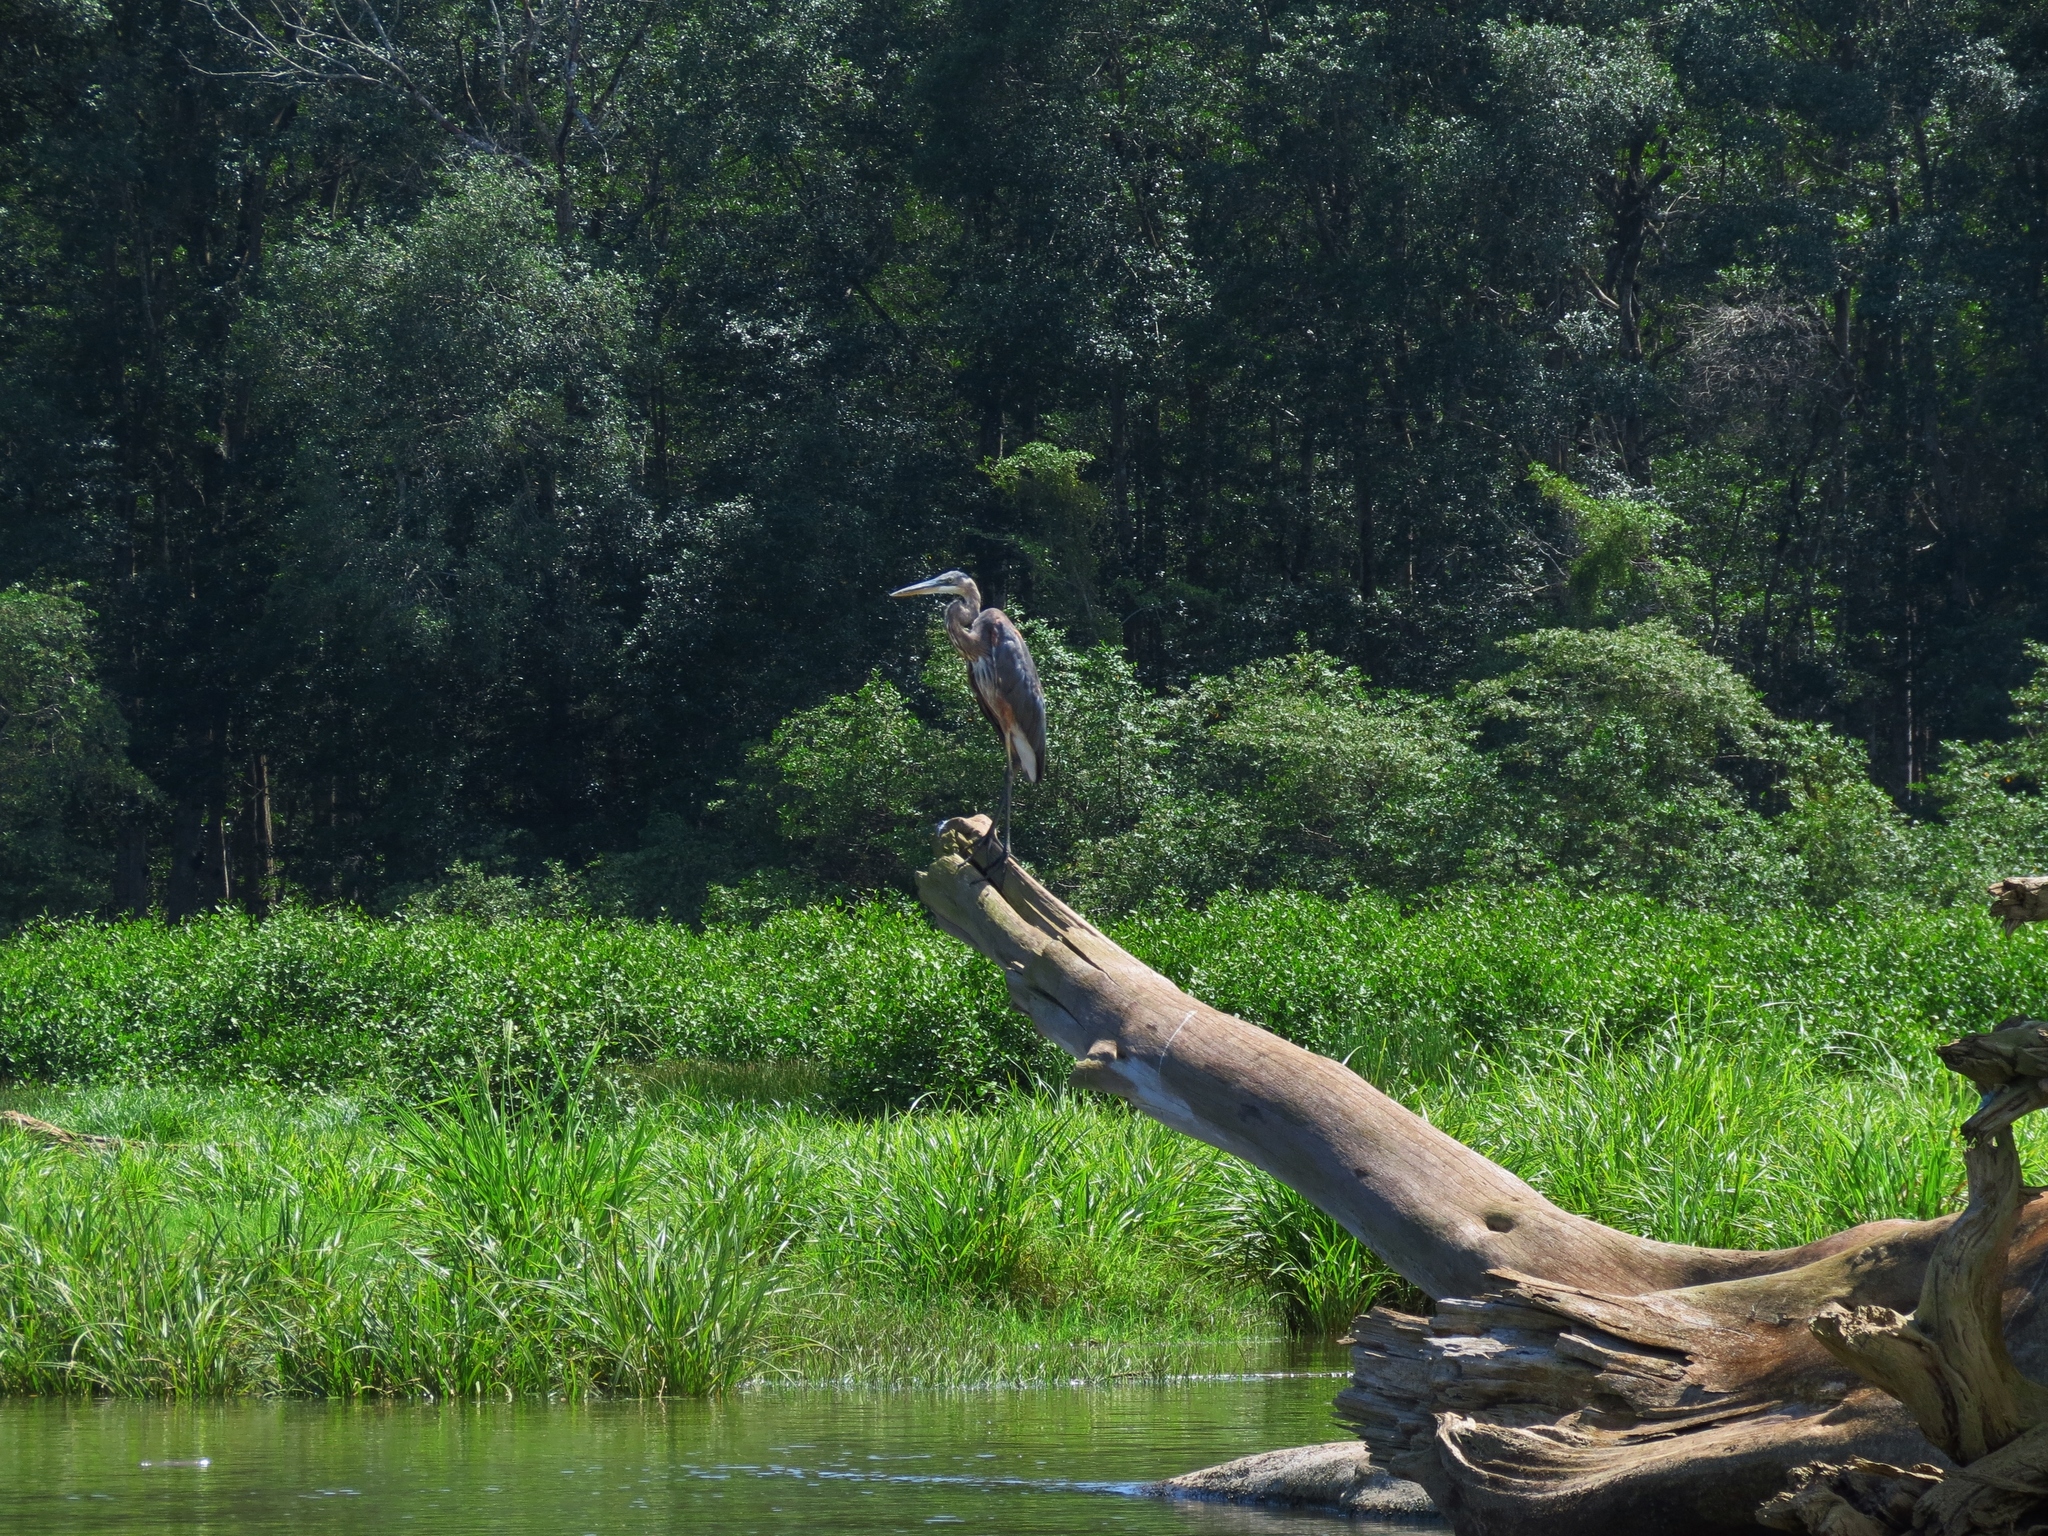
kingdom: Animalia
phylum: Chordata
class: Aves
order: Pelecaniformes
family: Ardeidae
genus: Ardea
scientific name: Ardea herodias
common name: Great blue heron
